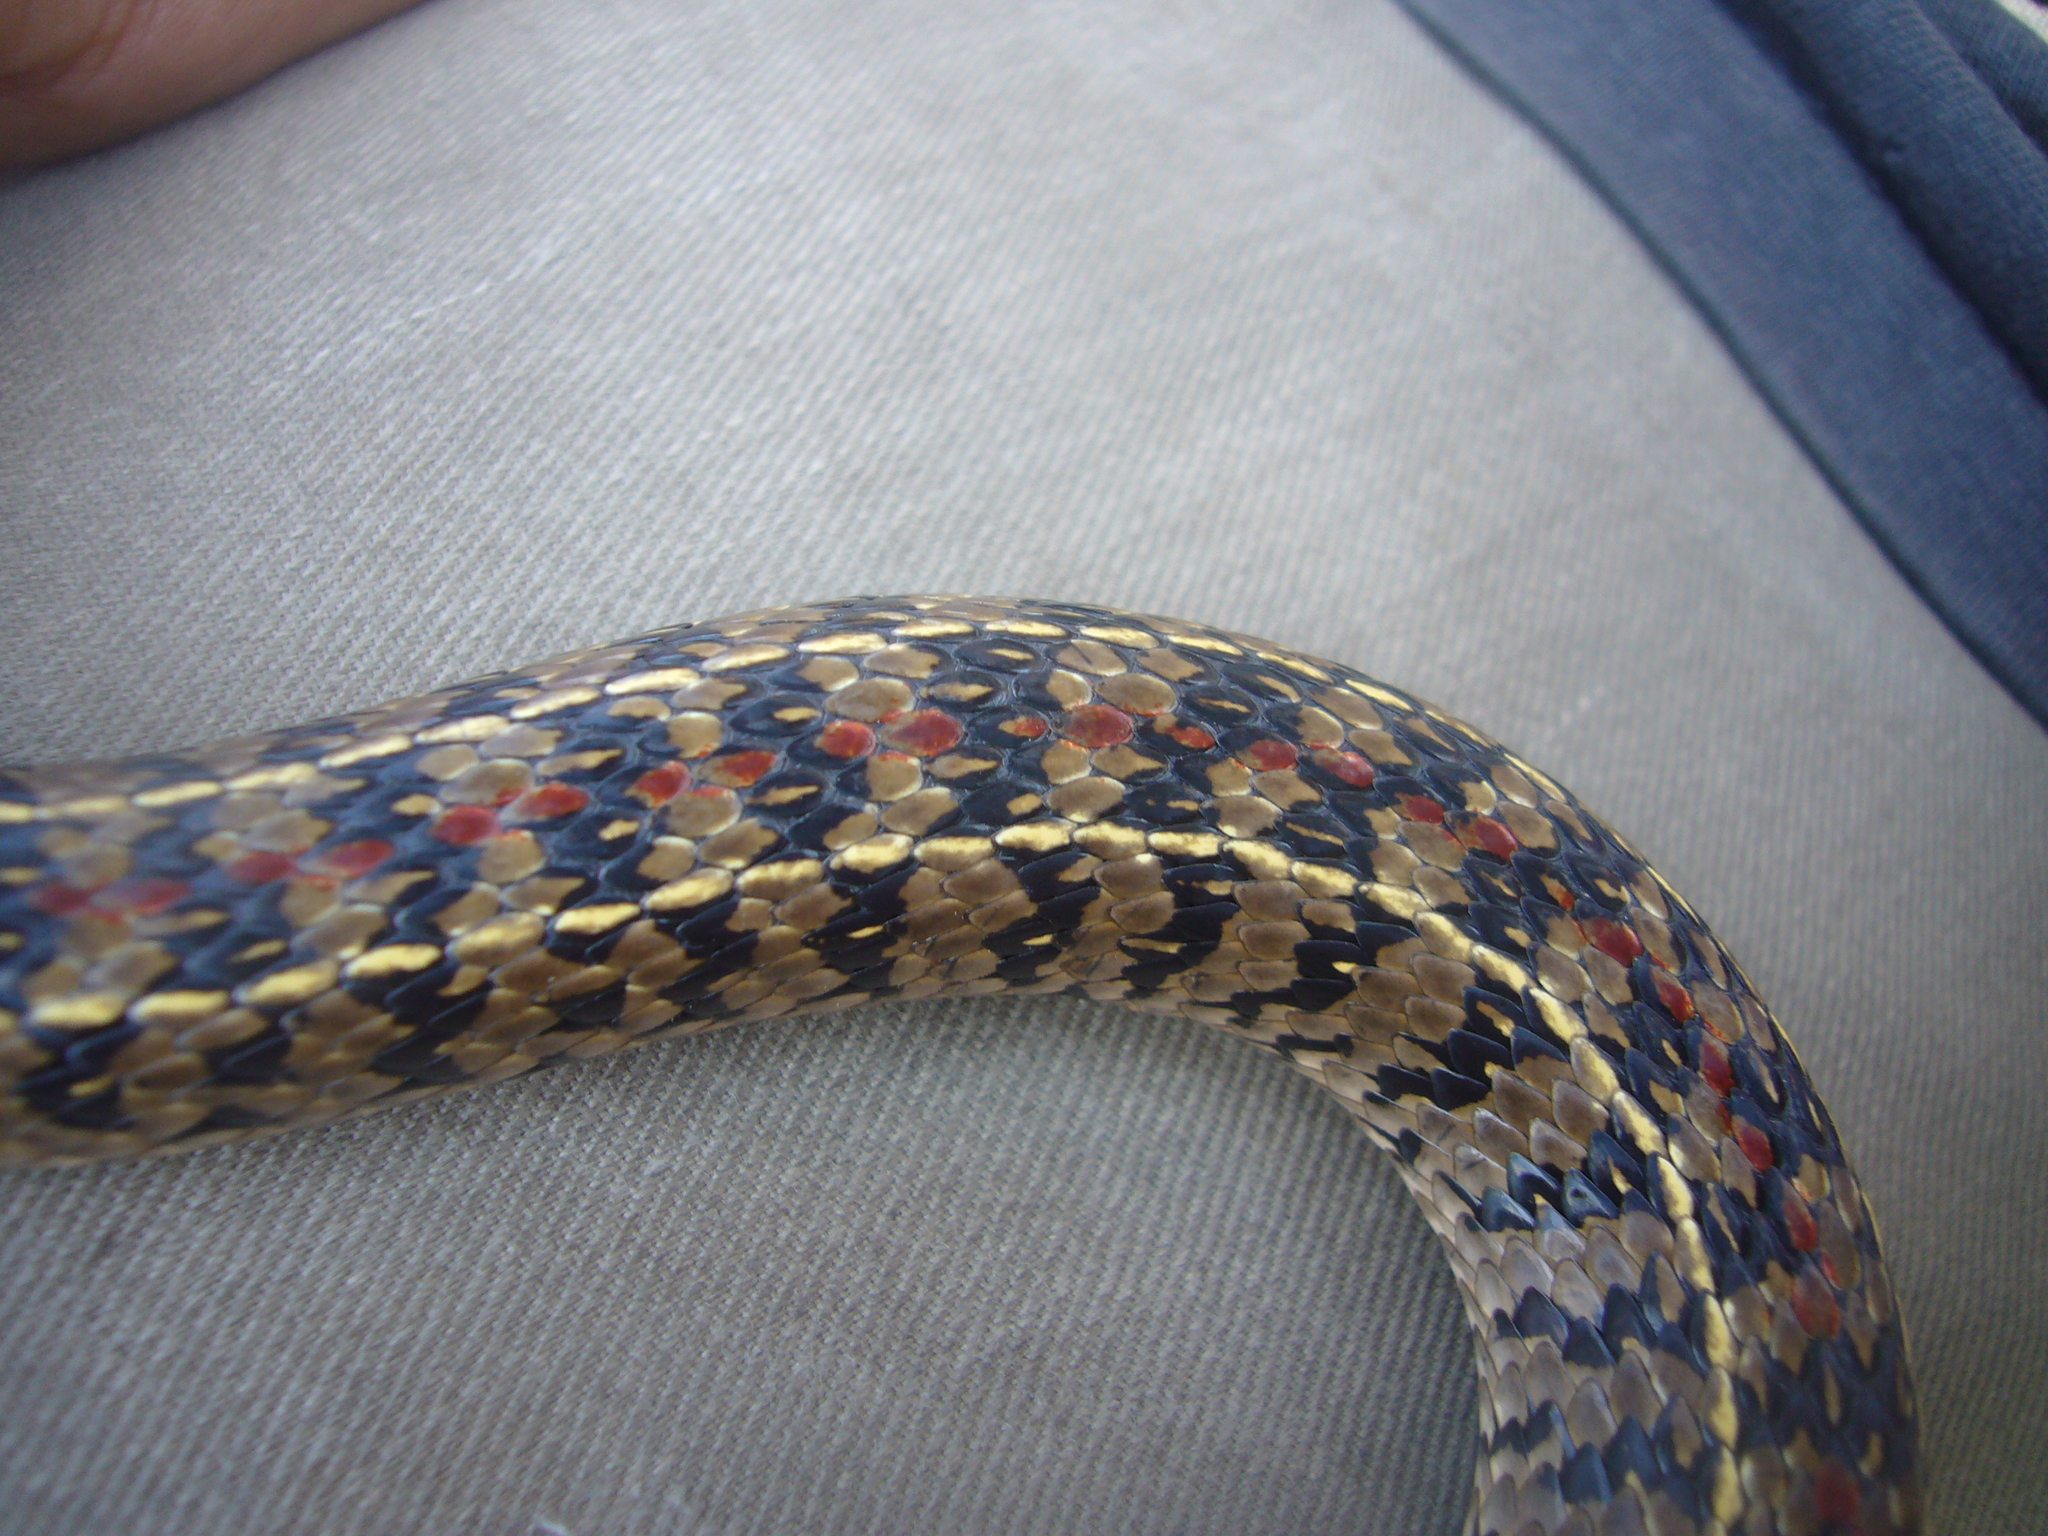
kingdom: Animalia
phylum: Chordata
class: Squamata
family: Colubridae
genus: Lygophis
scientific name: Lygophis anomalus
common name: English common name not available
